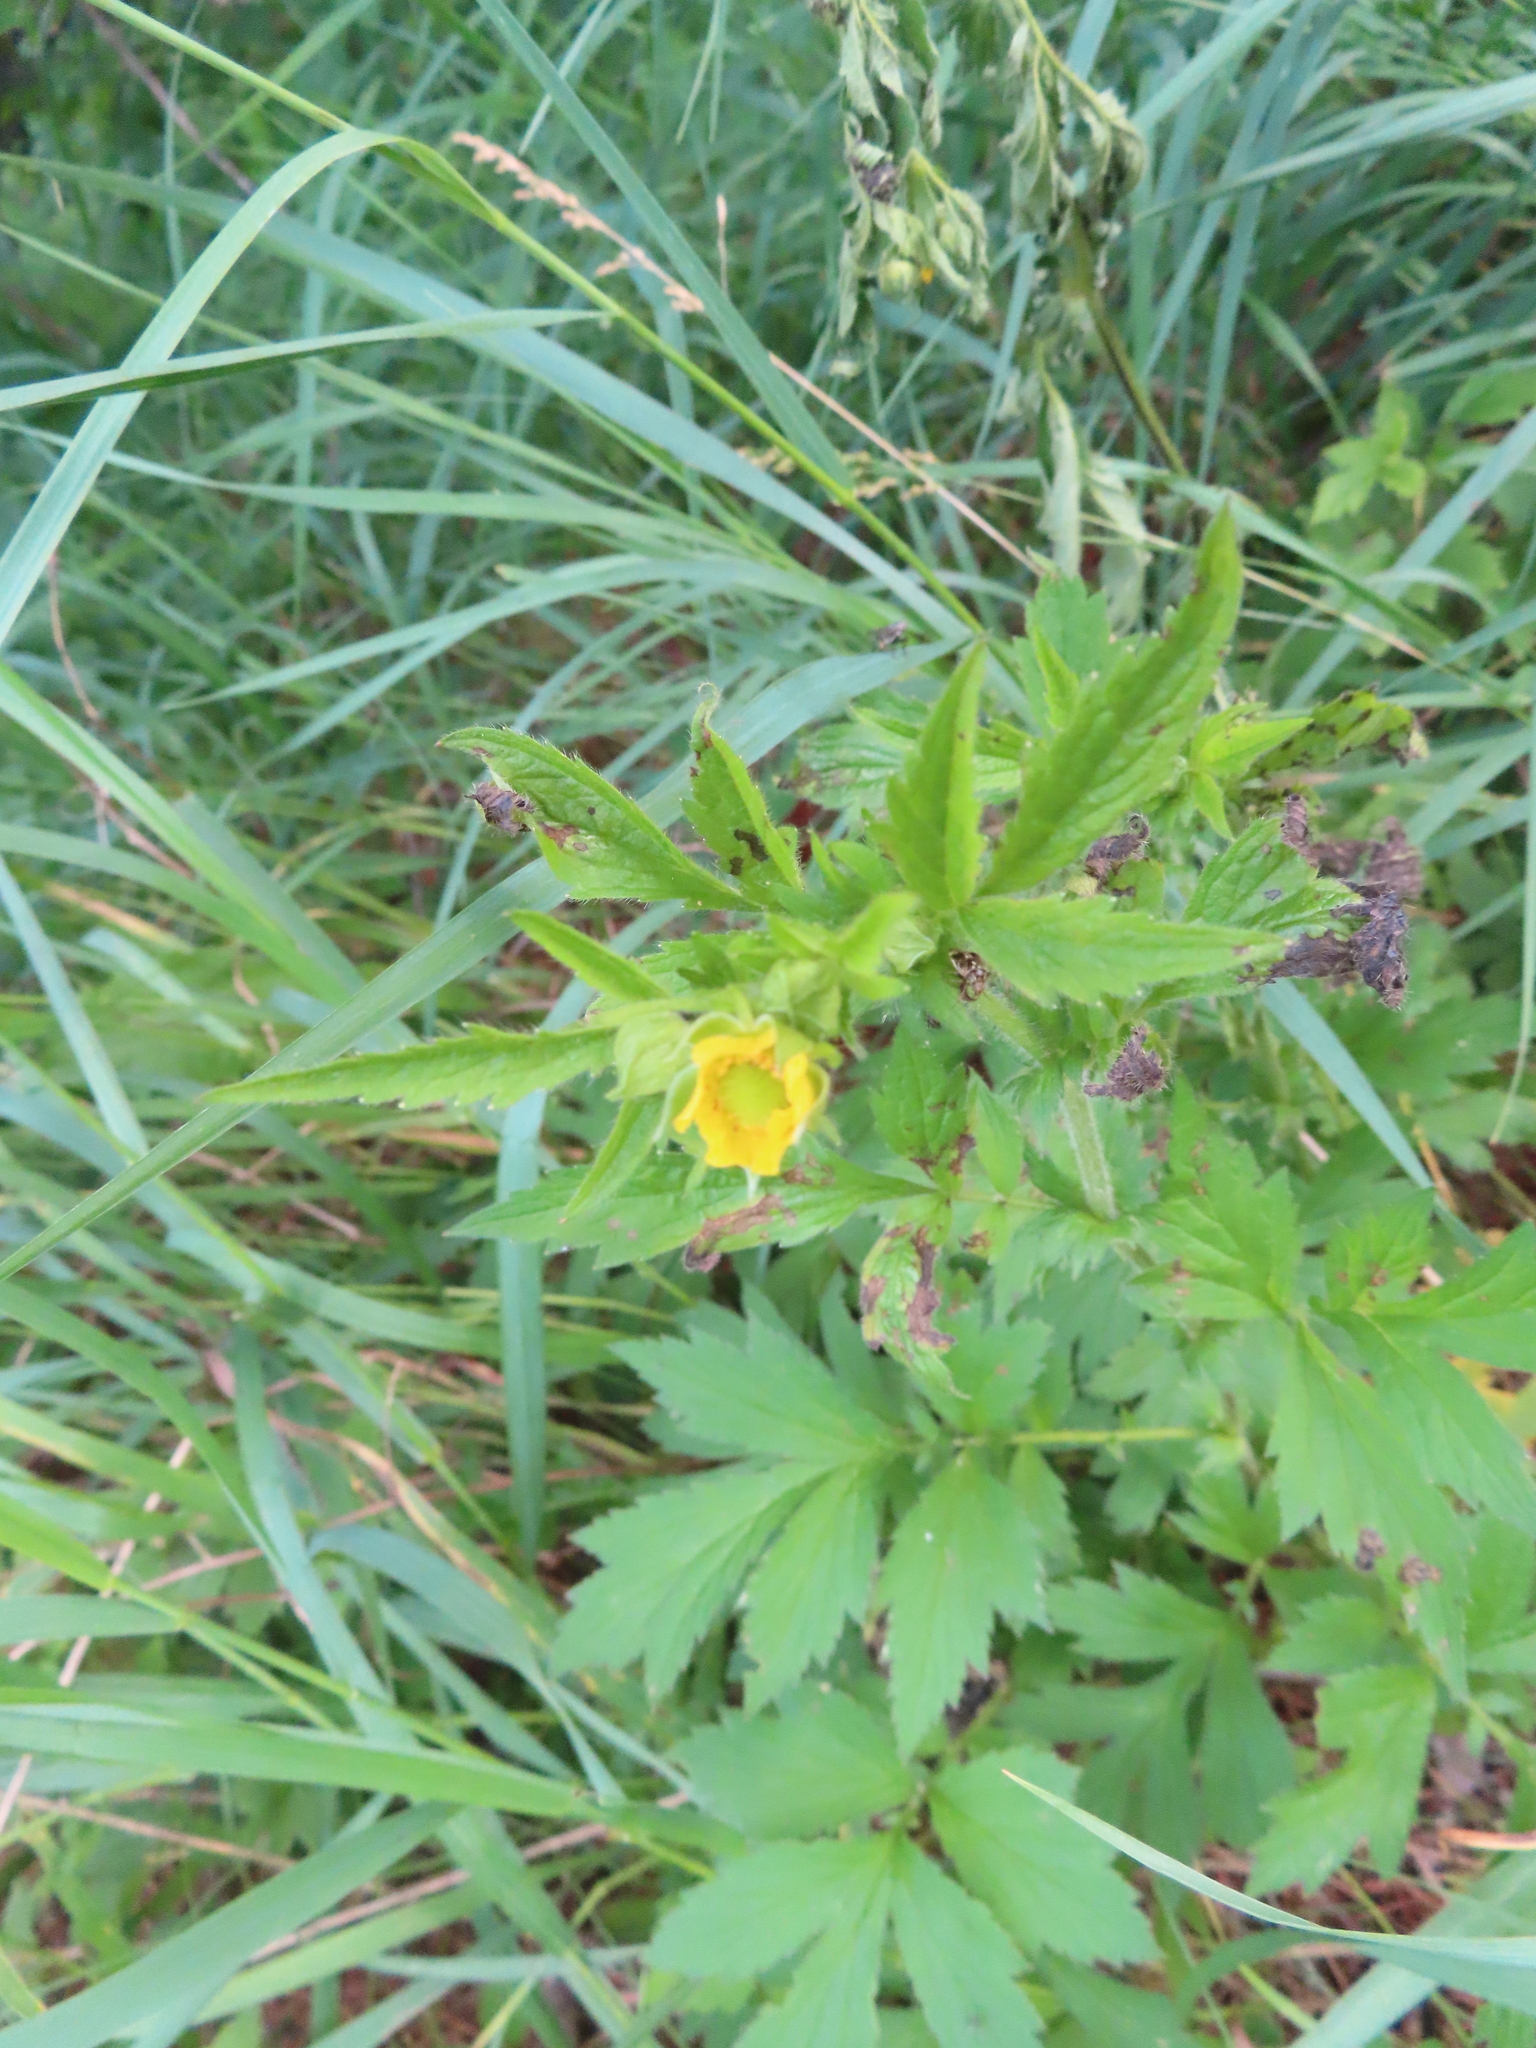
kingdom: Plantae
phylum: Tracheophyta
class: Magnoliopsida
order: Rosales
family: Rosaceae
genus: Geum
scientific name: Geum aleppicum
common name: Yellow avens
